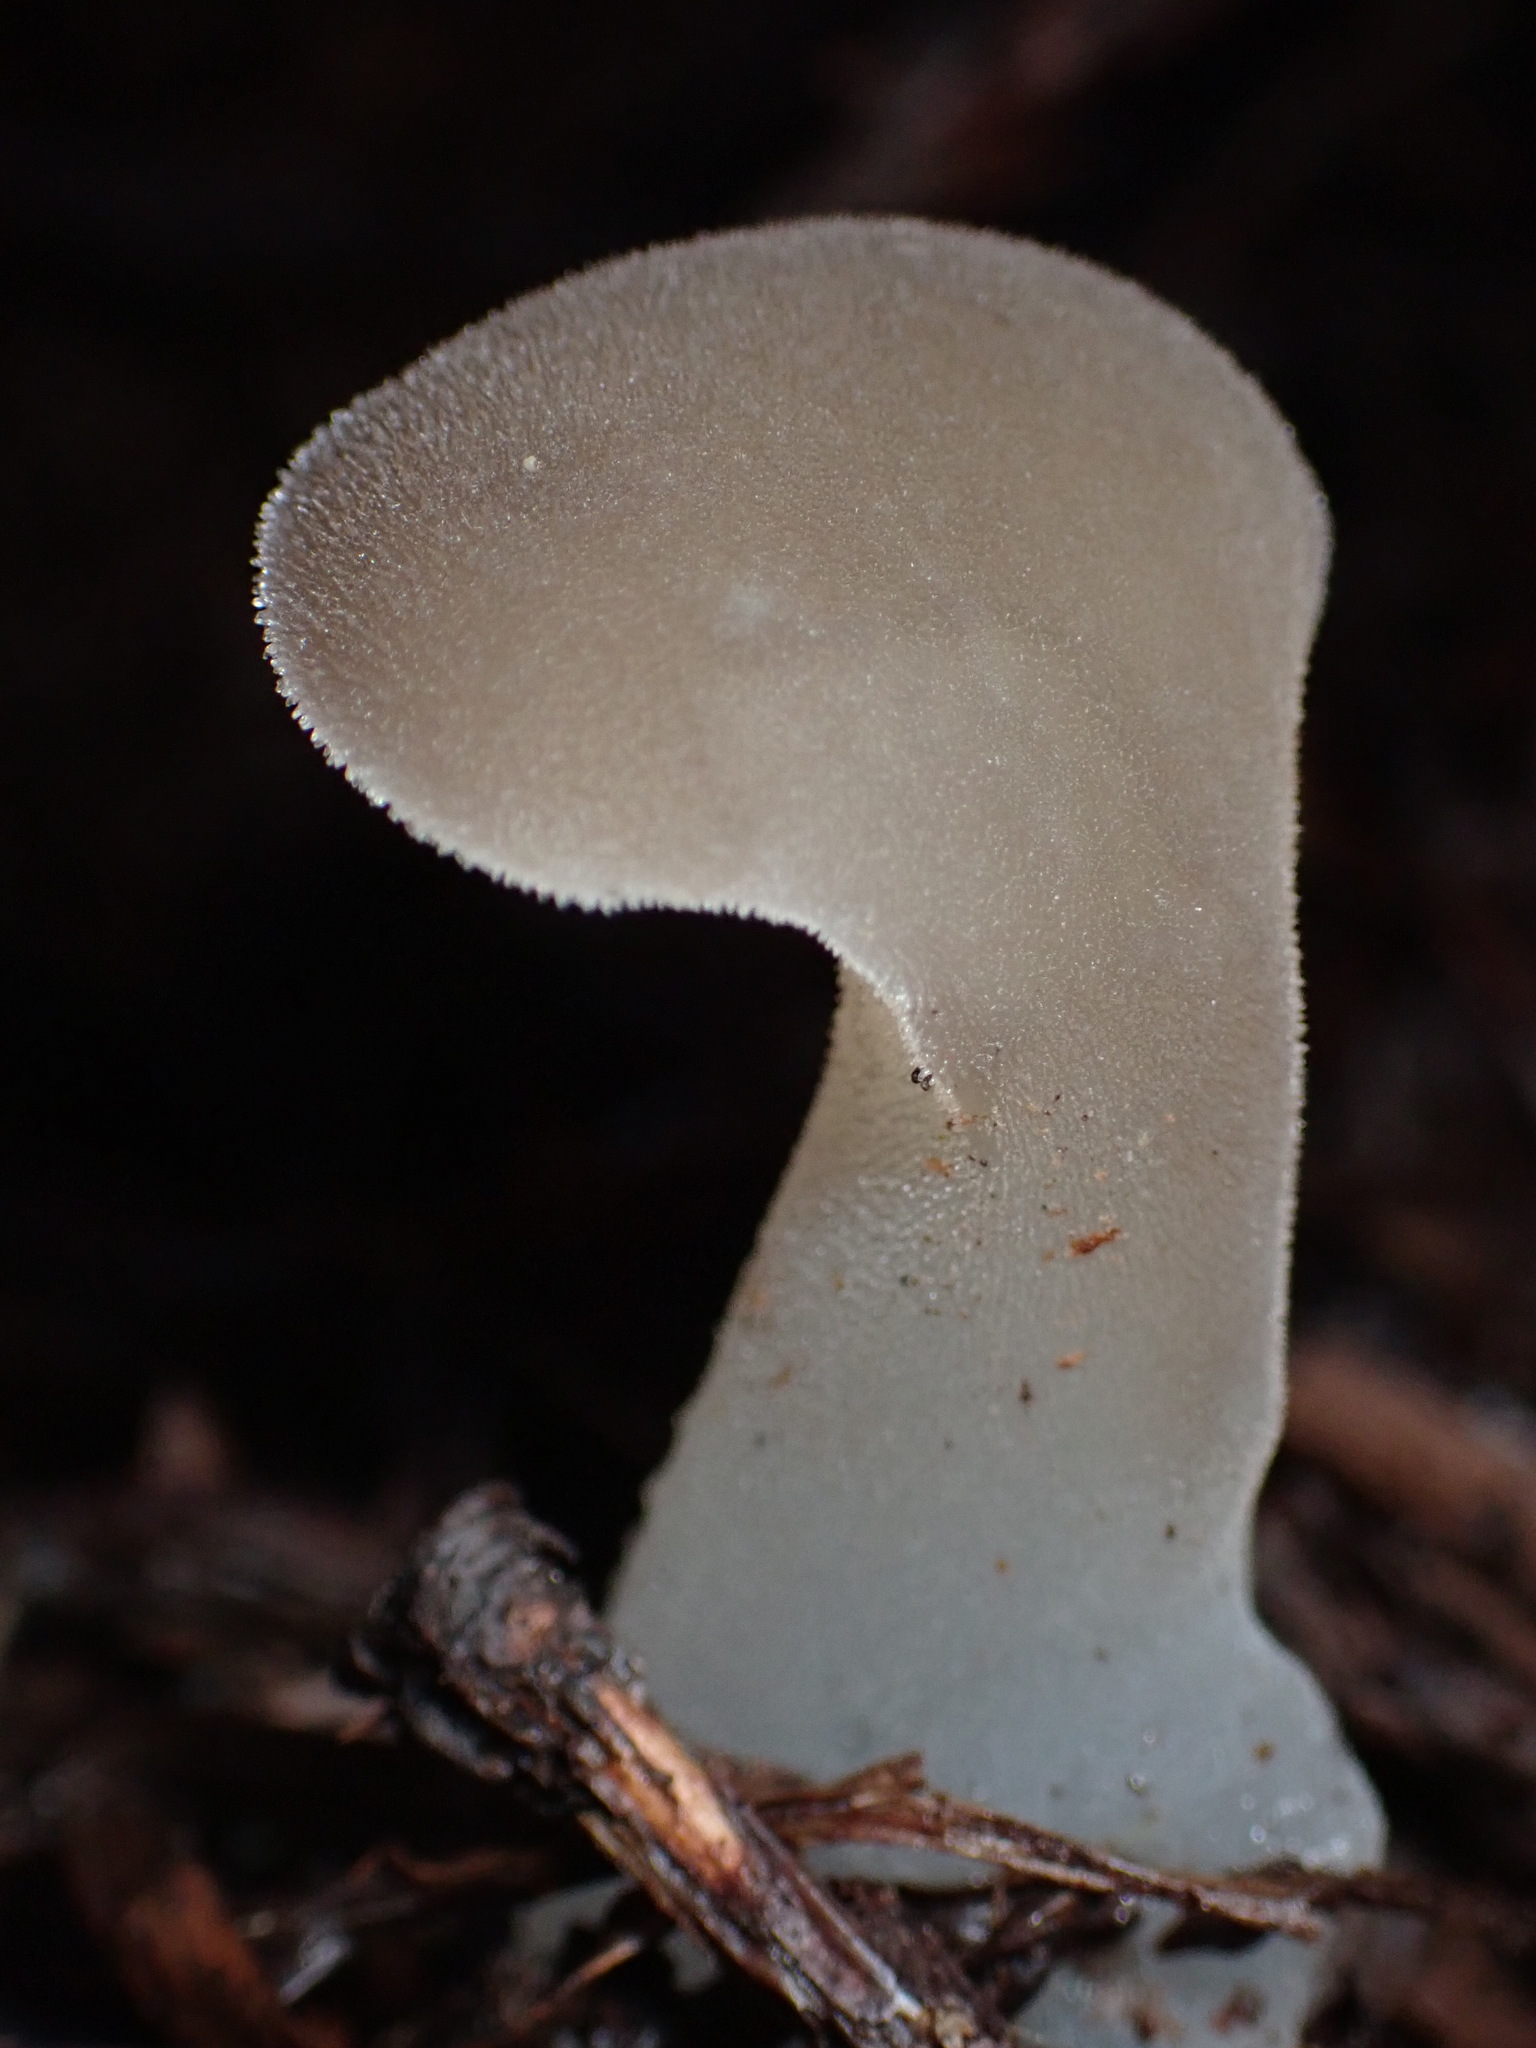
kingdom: Fungi
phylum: Basidiomycota
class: Agaricomycetes
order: Auriculariales
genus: Pseudohydnum
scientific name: Pseudohydnum gelatinosum
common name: Jelly tongue
